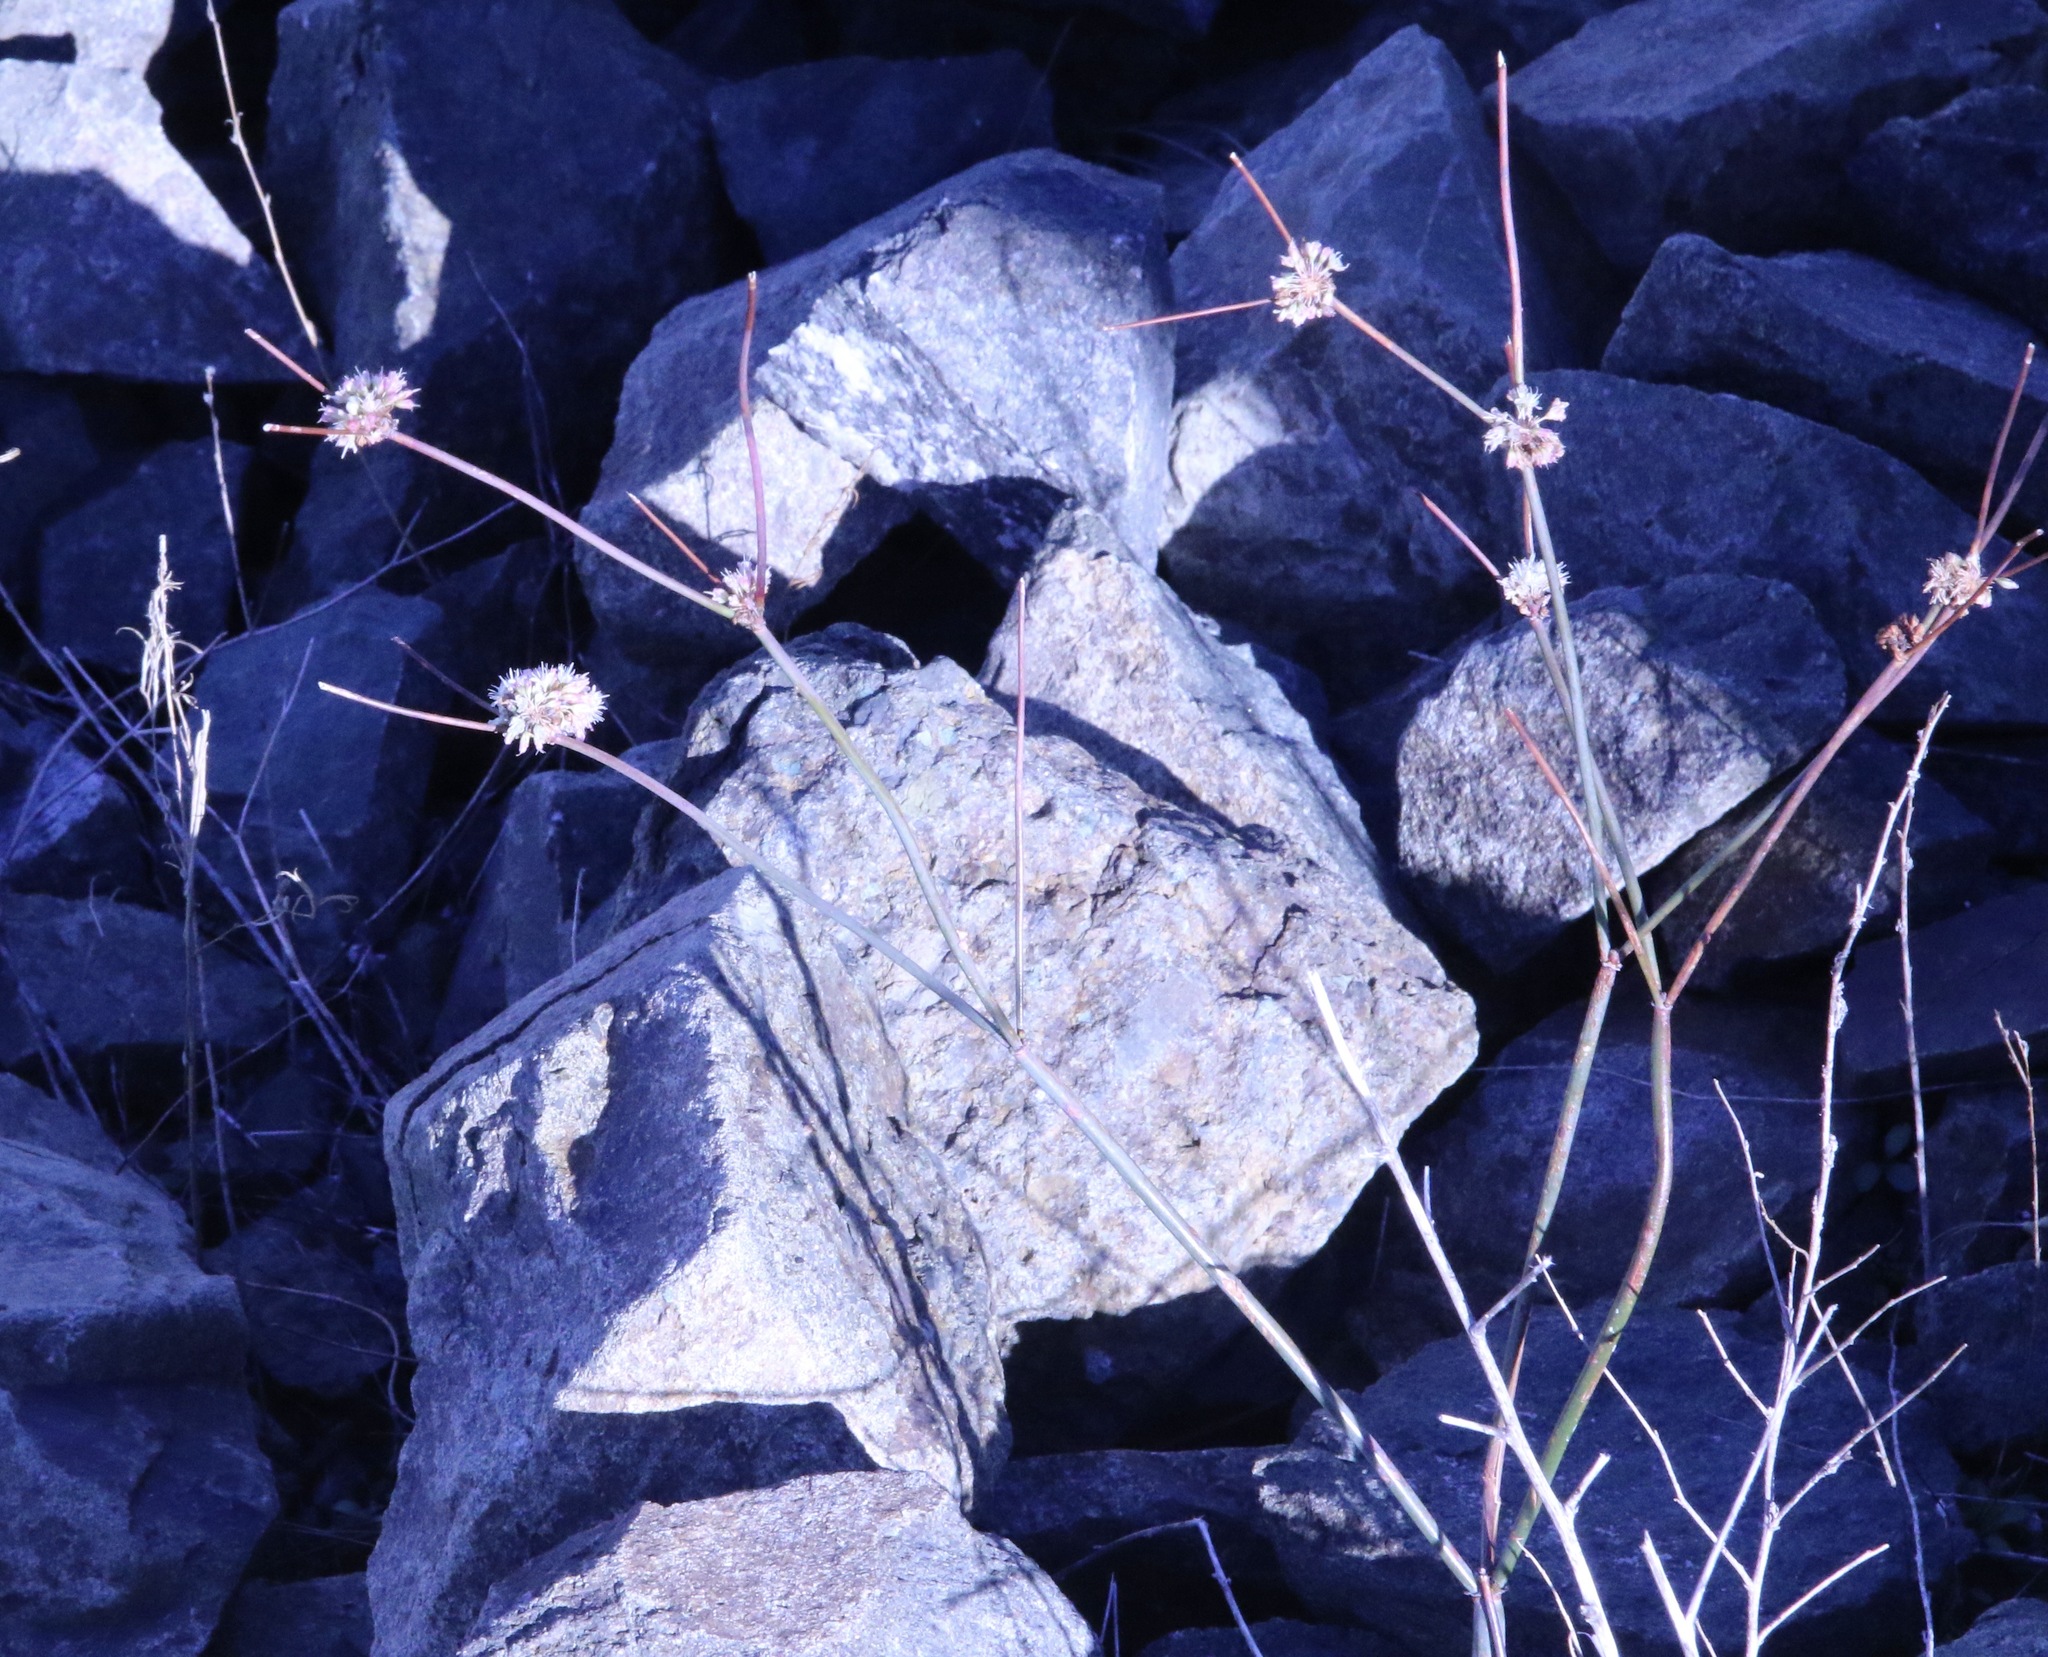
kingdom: Plantae
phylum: Tracheophyta
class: Magnoliopsida
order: Caryophyllales
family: Polygonaceae
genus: Eriogonum
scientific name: Eriogonum nudum
